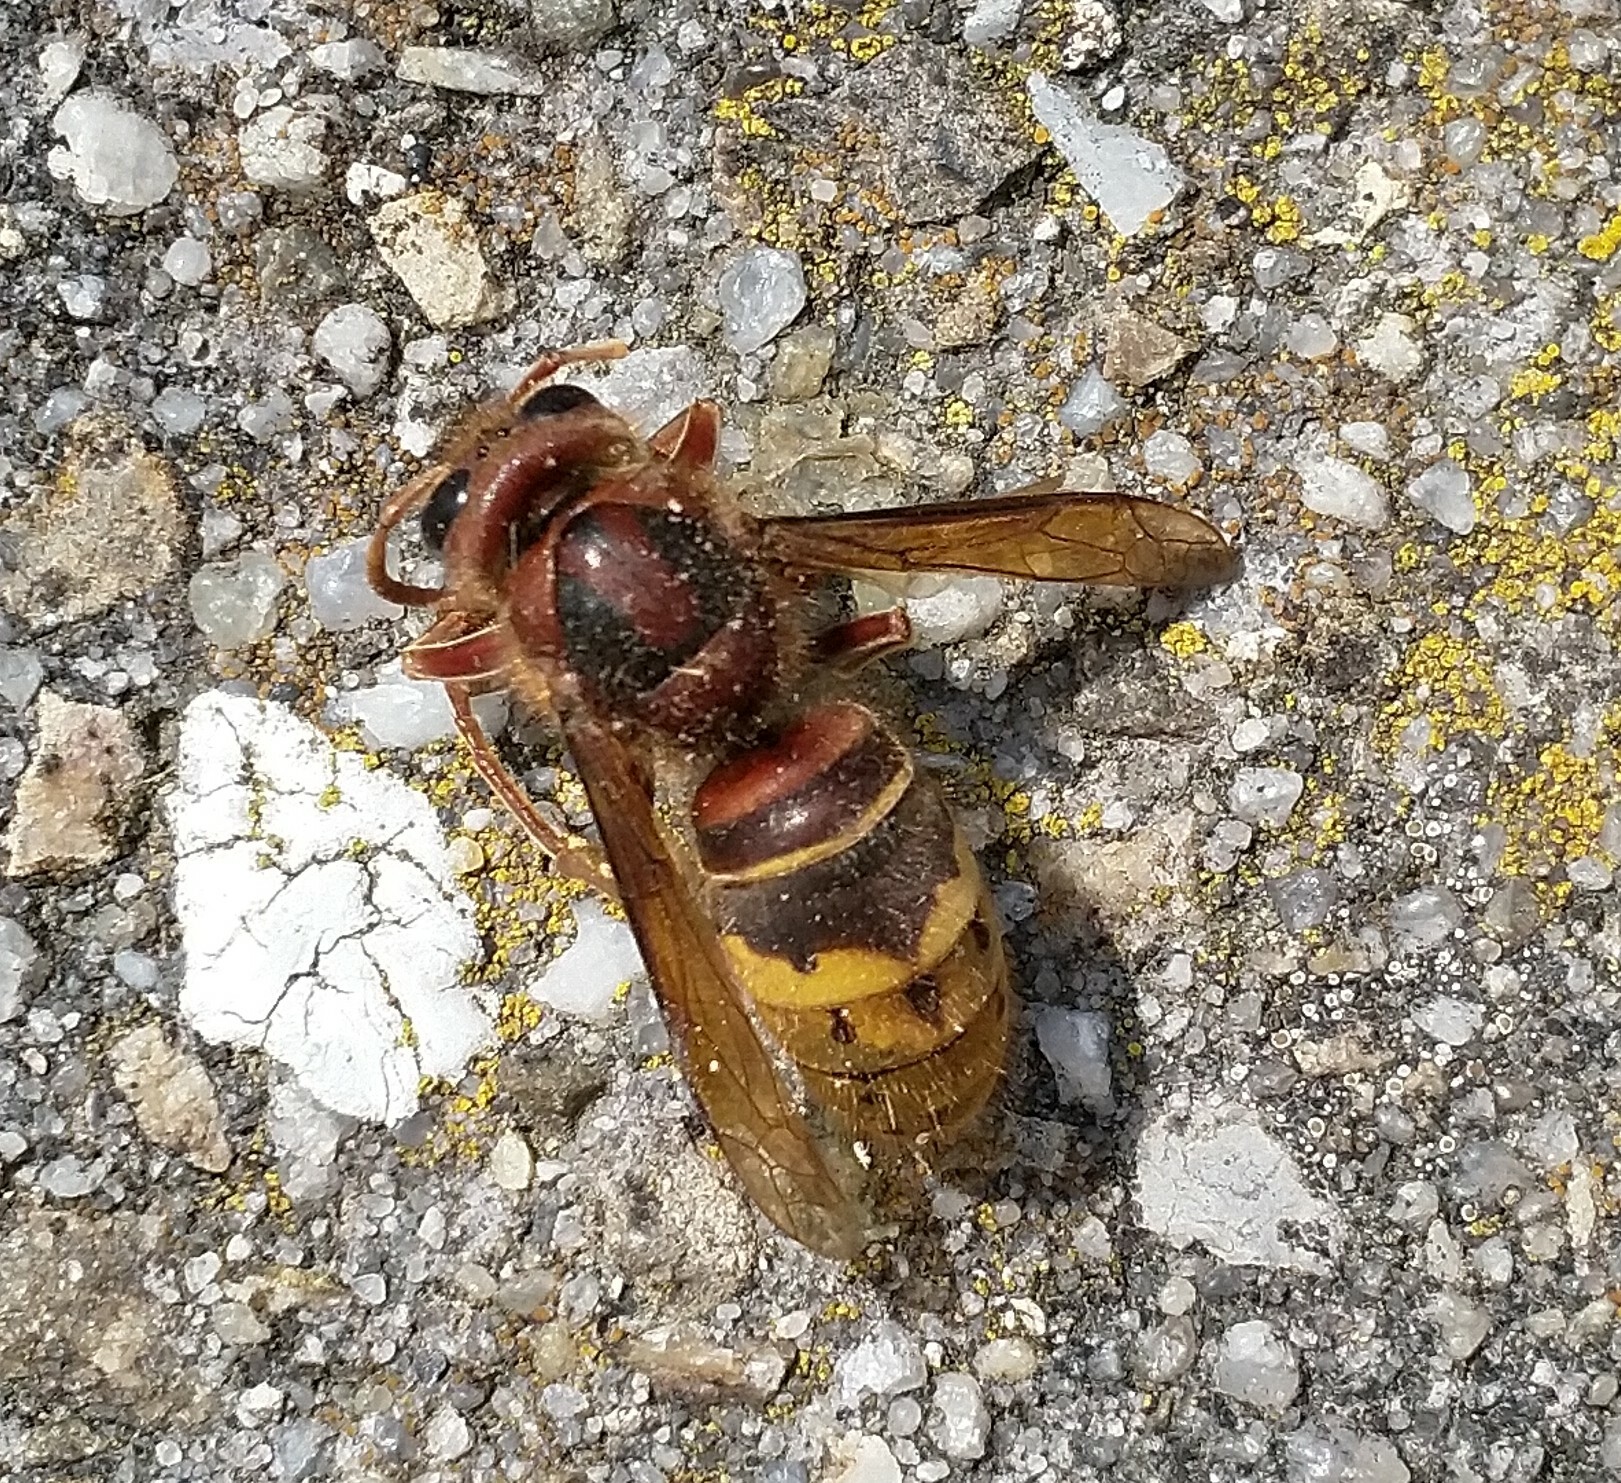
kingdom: Animalia
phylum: Arthropoda
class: Insecta
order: Hymenoptera
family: Vespidae
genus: Vespa
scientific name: Vespa crabro
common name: Hornet
